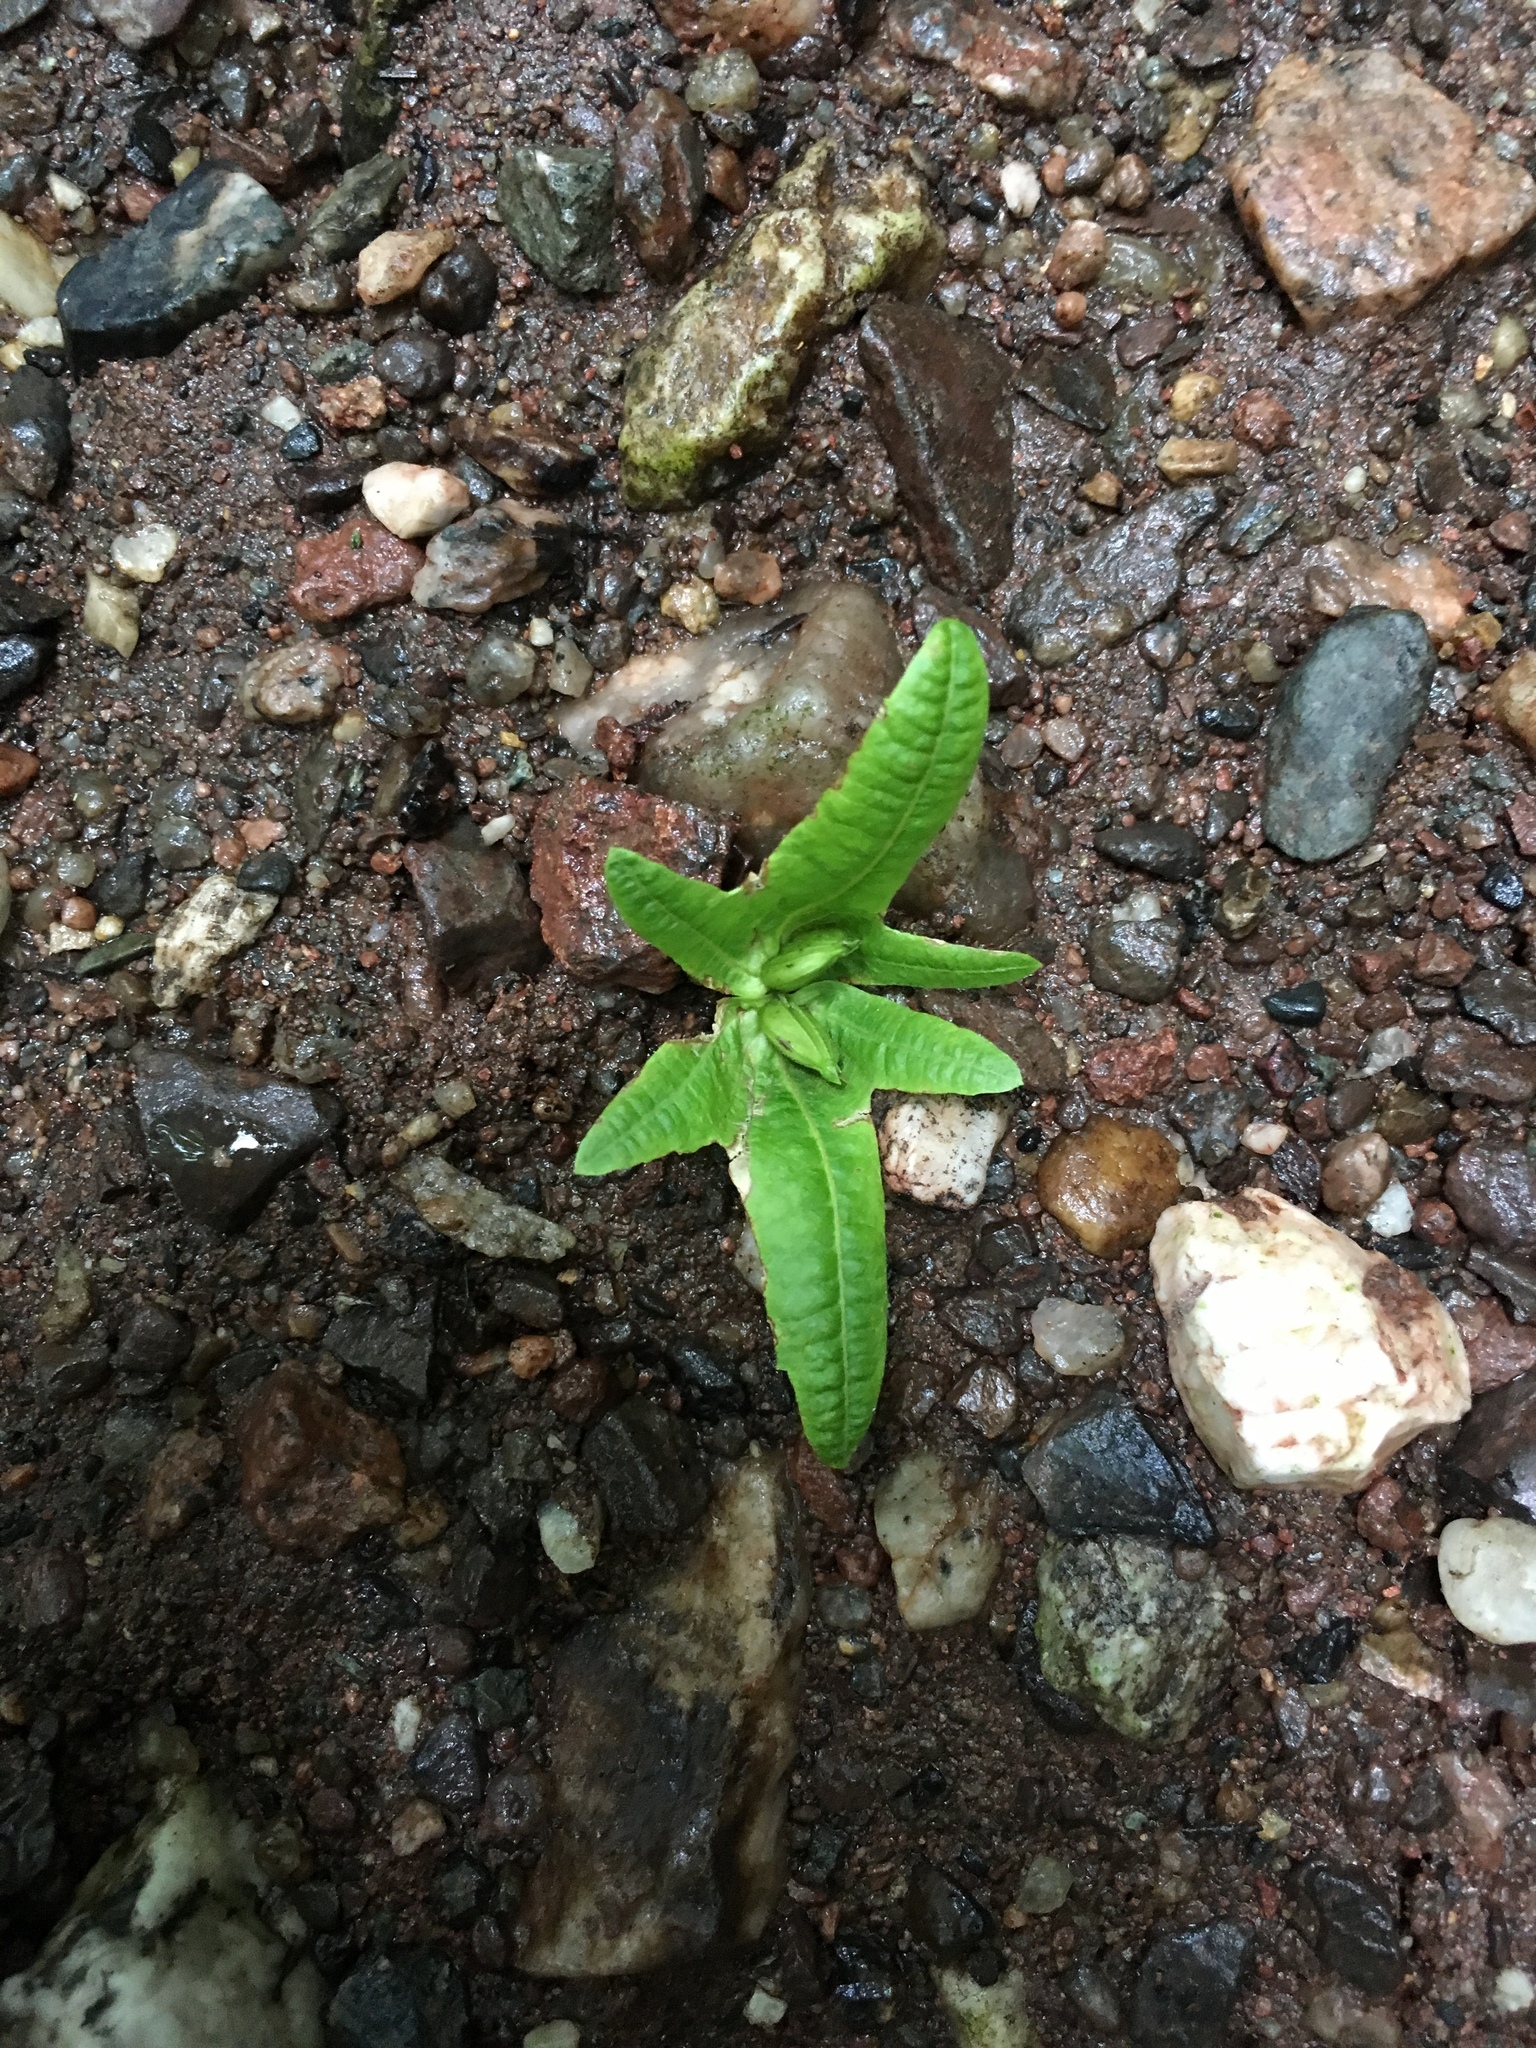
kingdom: Plantae
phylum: Tracheophyta
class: Magnoliopsida
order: Fagales
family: Betulaceae
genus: Carpinus
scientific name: Carpinus betulus
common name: Hornbeam
